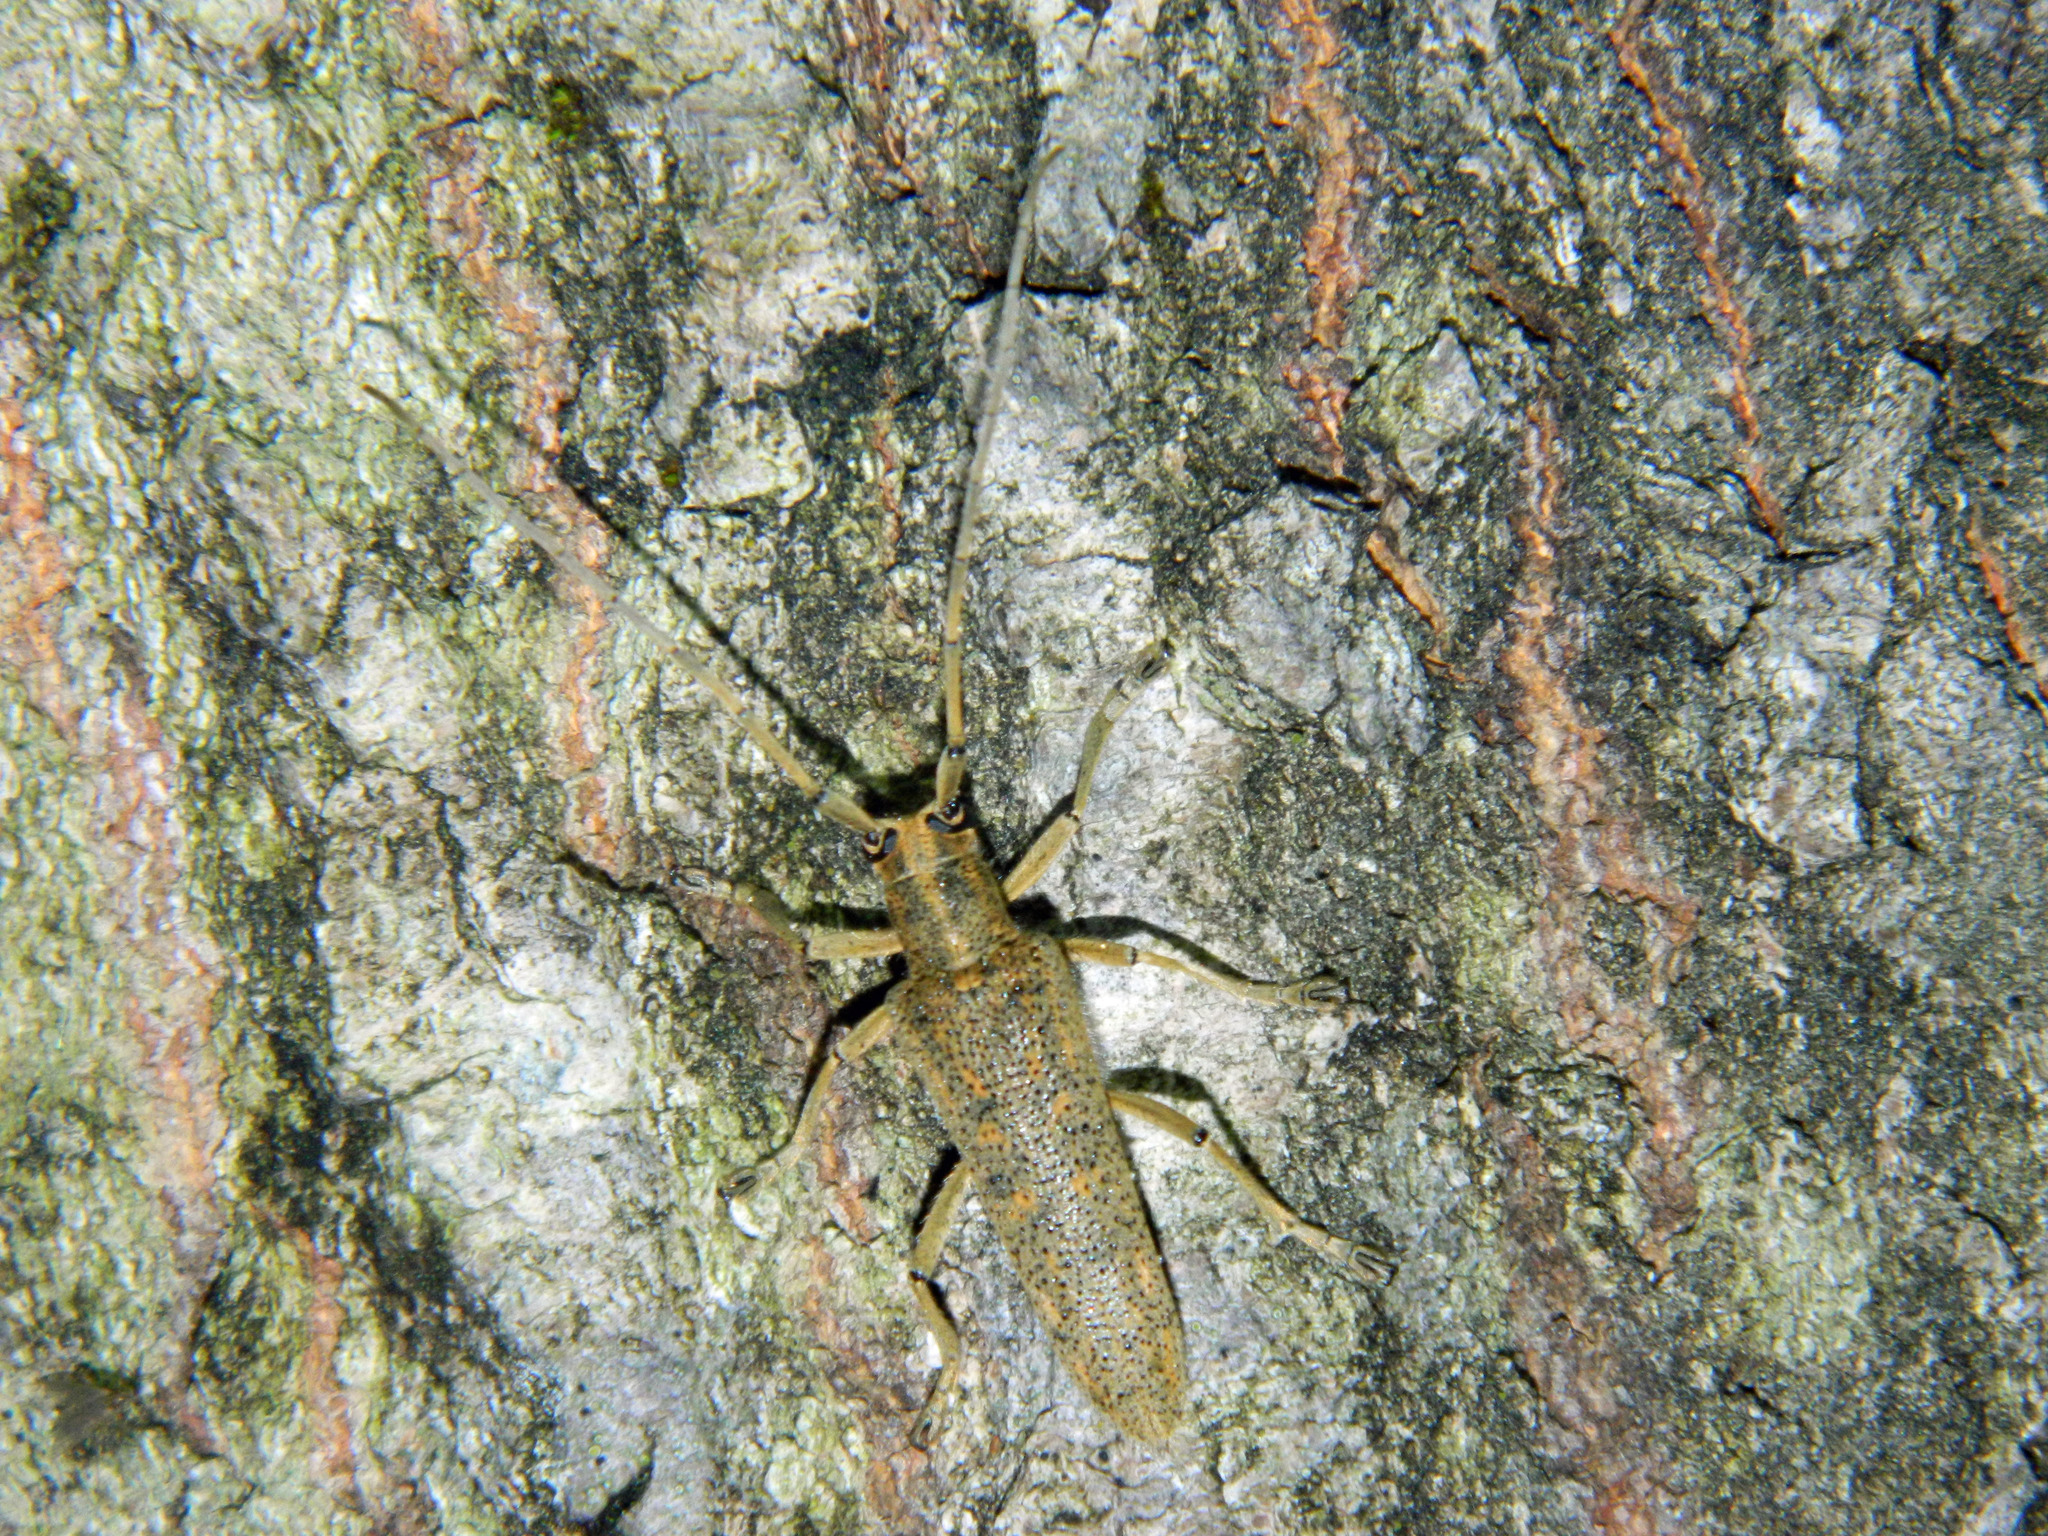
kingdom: Animalia
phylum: Arthropoda
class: Insecta
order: Coleoptera
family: Cerambycidae
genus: Saperda
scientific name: Saperda calcarata
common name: Poplar borer
